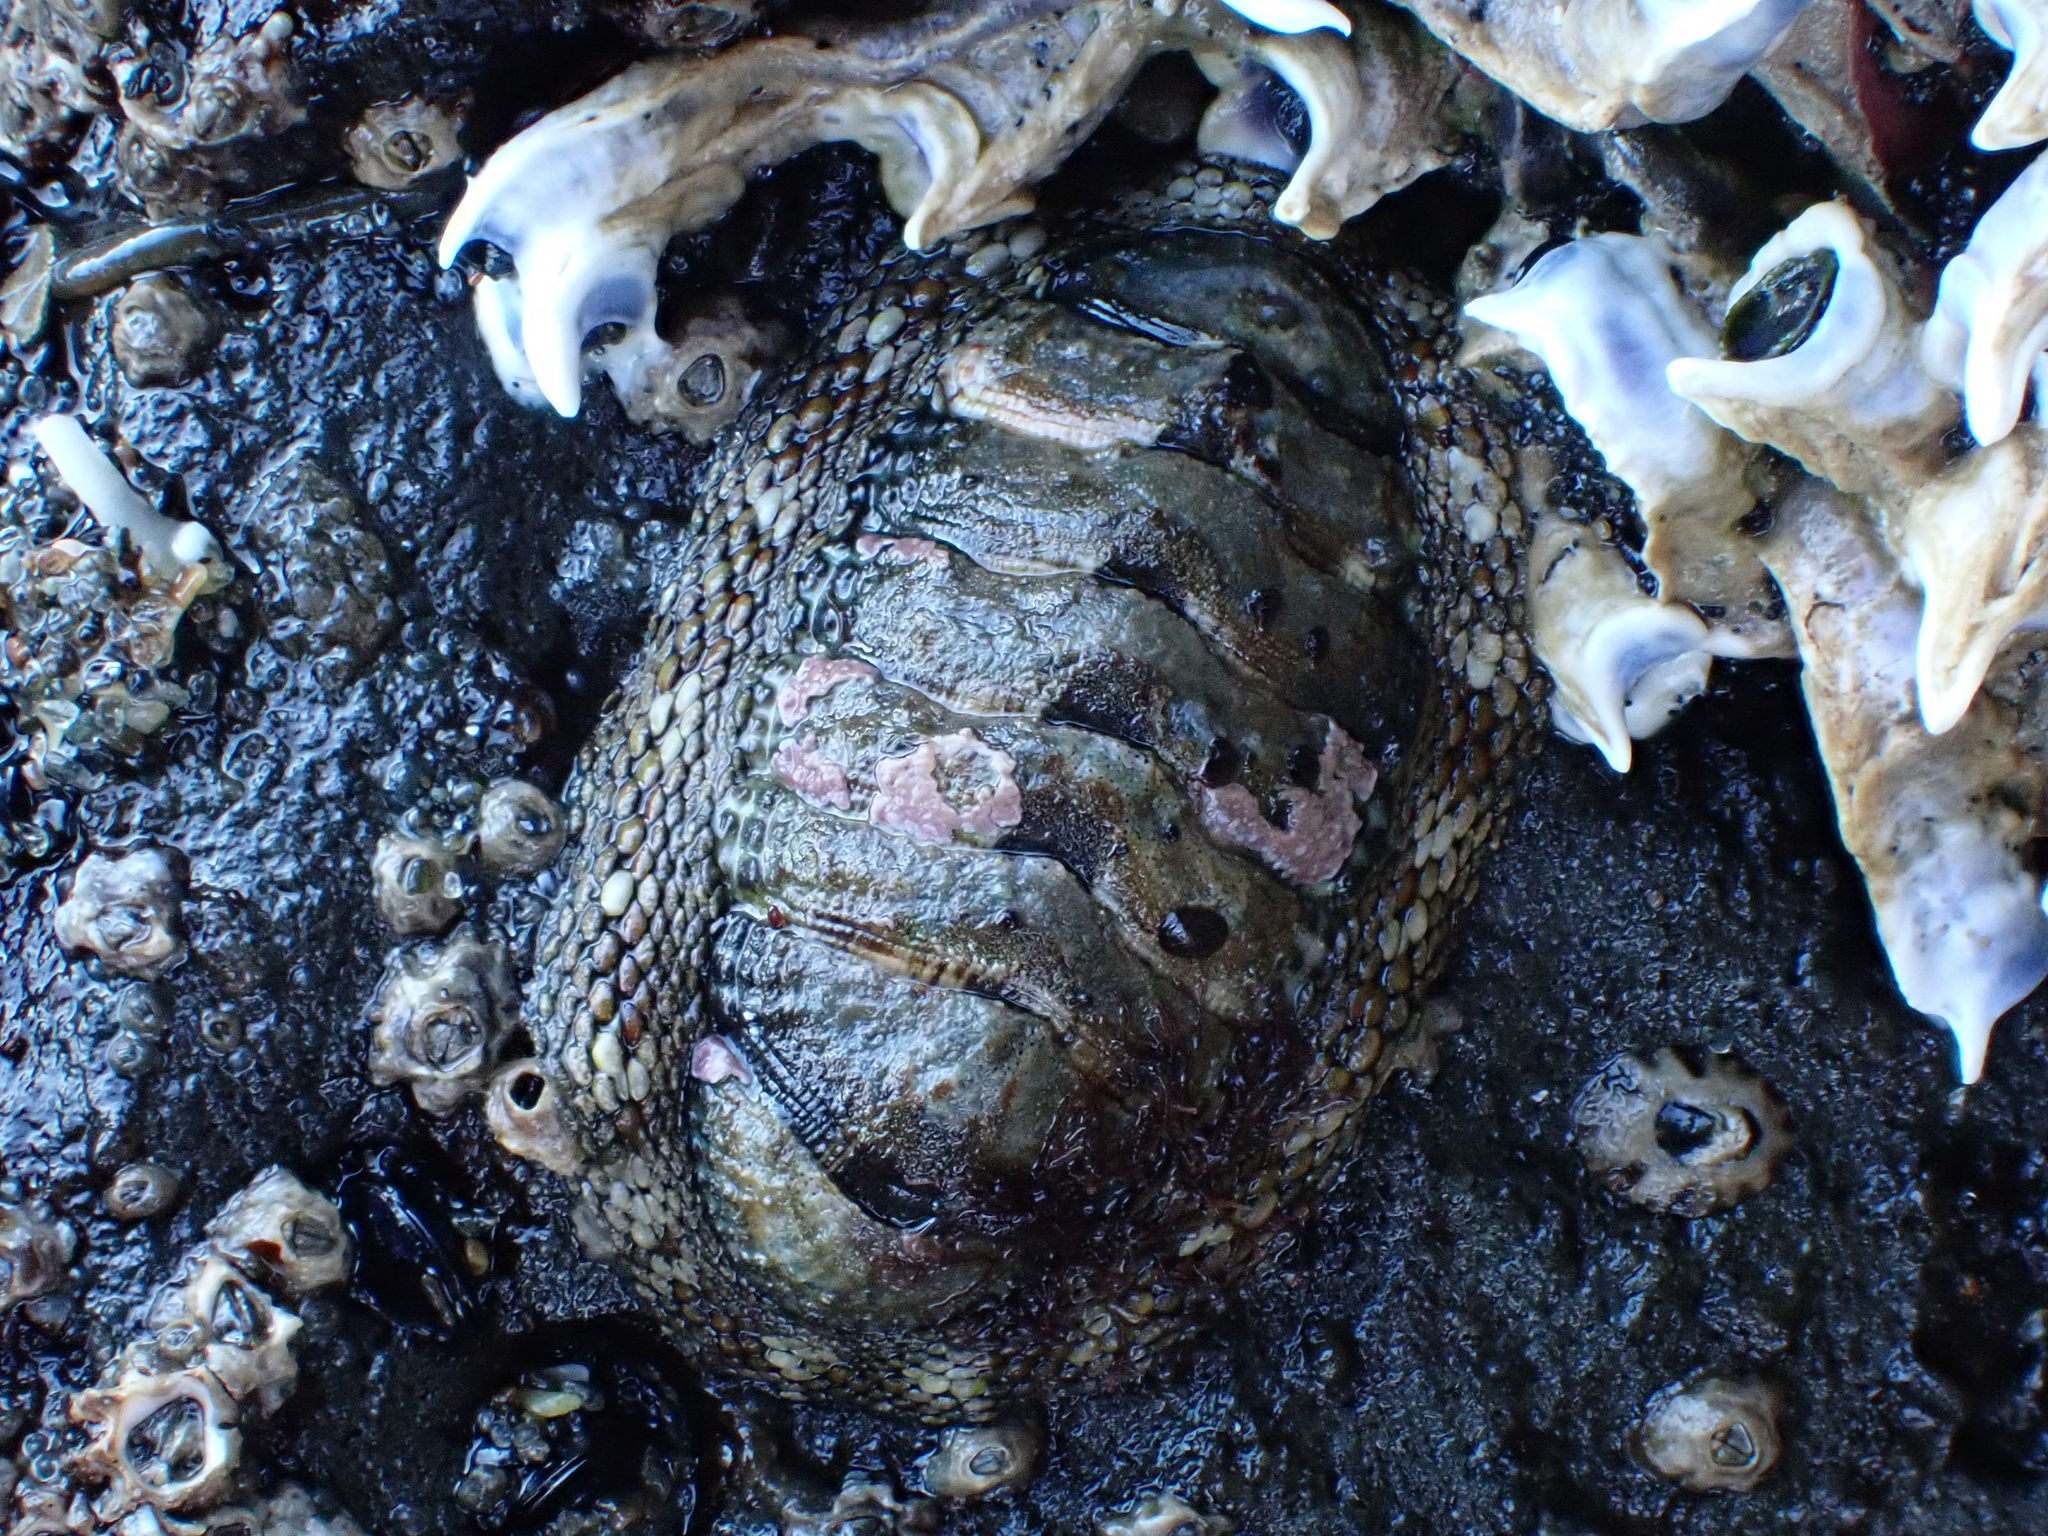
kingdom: Animalia
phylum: Mollusca
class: Polyplacophora
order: Chitonida
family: Chitonidae
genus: Sypharochiton
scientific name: Sypharochiton pelliserpentis
